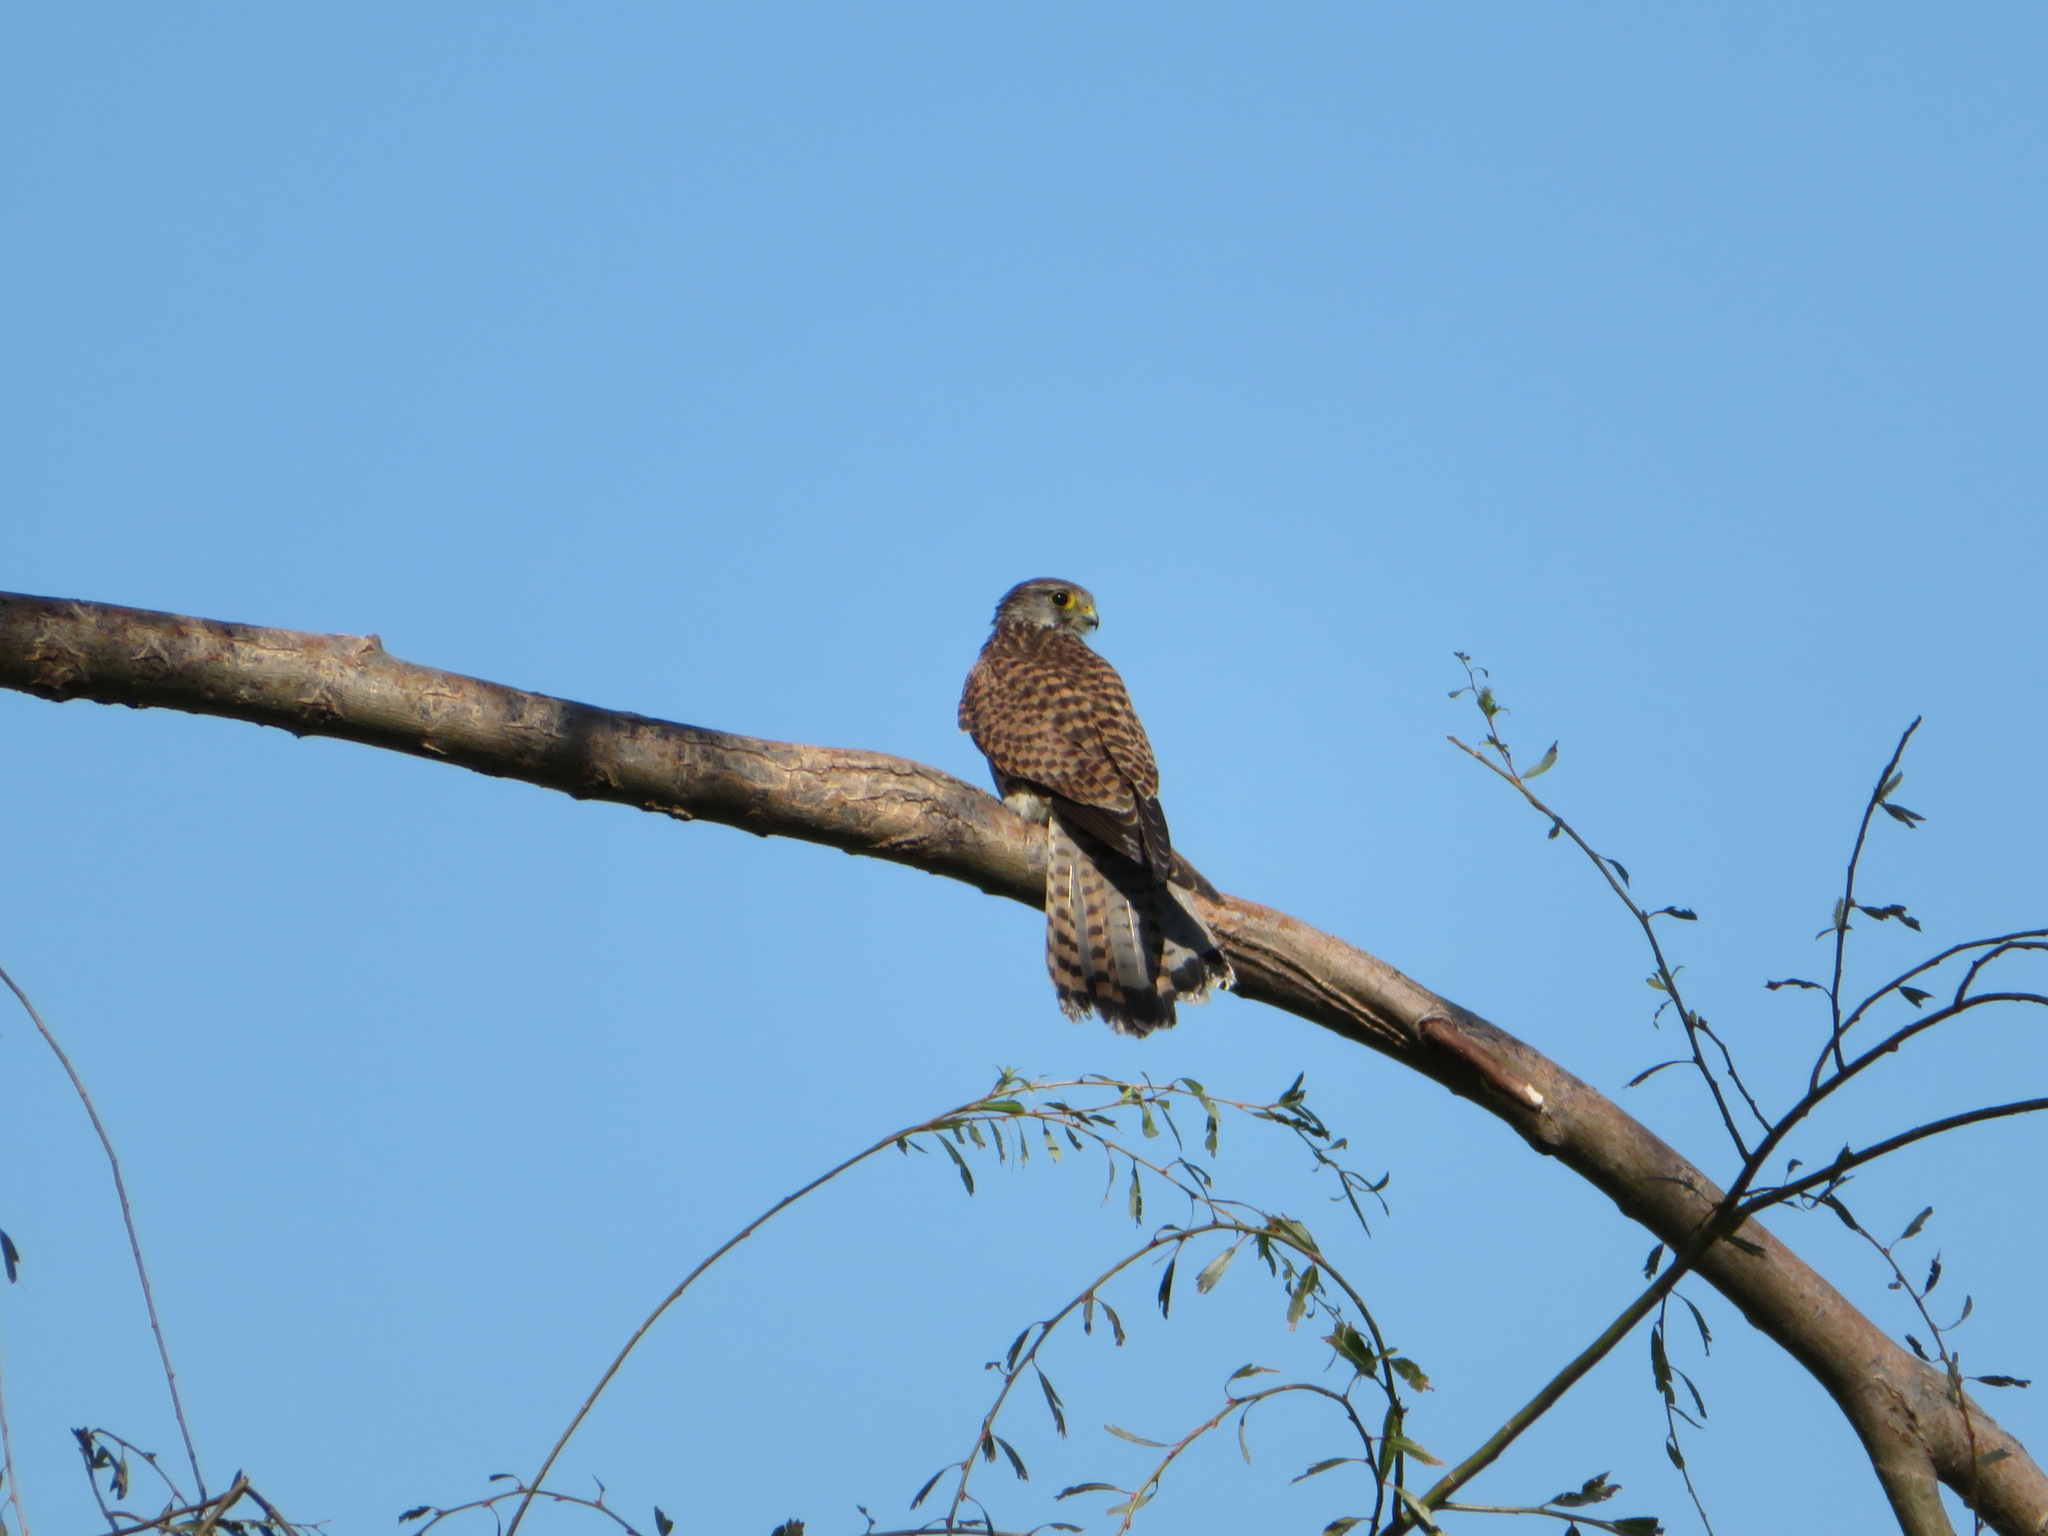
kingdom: Animalia
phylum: Chordata
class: Aves
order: Falconiformes
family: Falconidae
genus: Falco
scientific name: Falco tinnunculus
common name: Common kestrel
